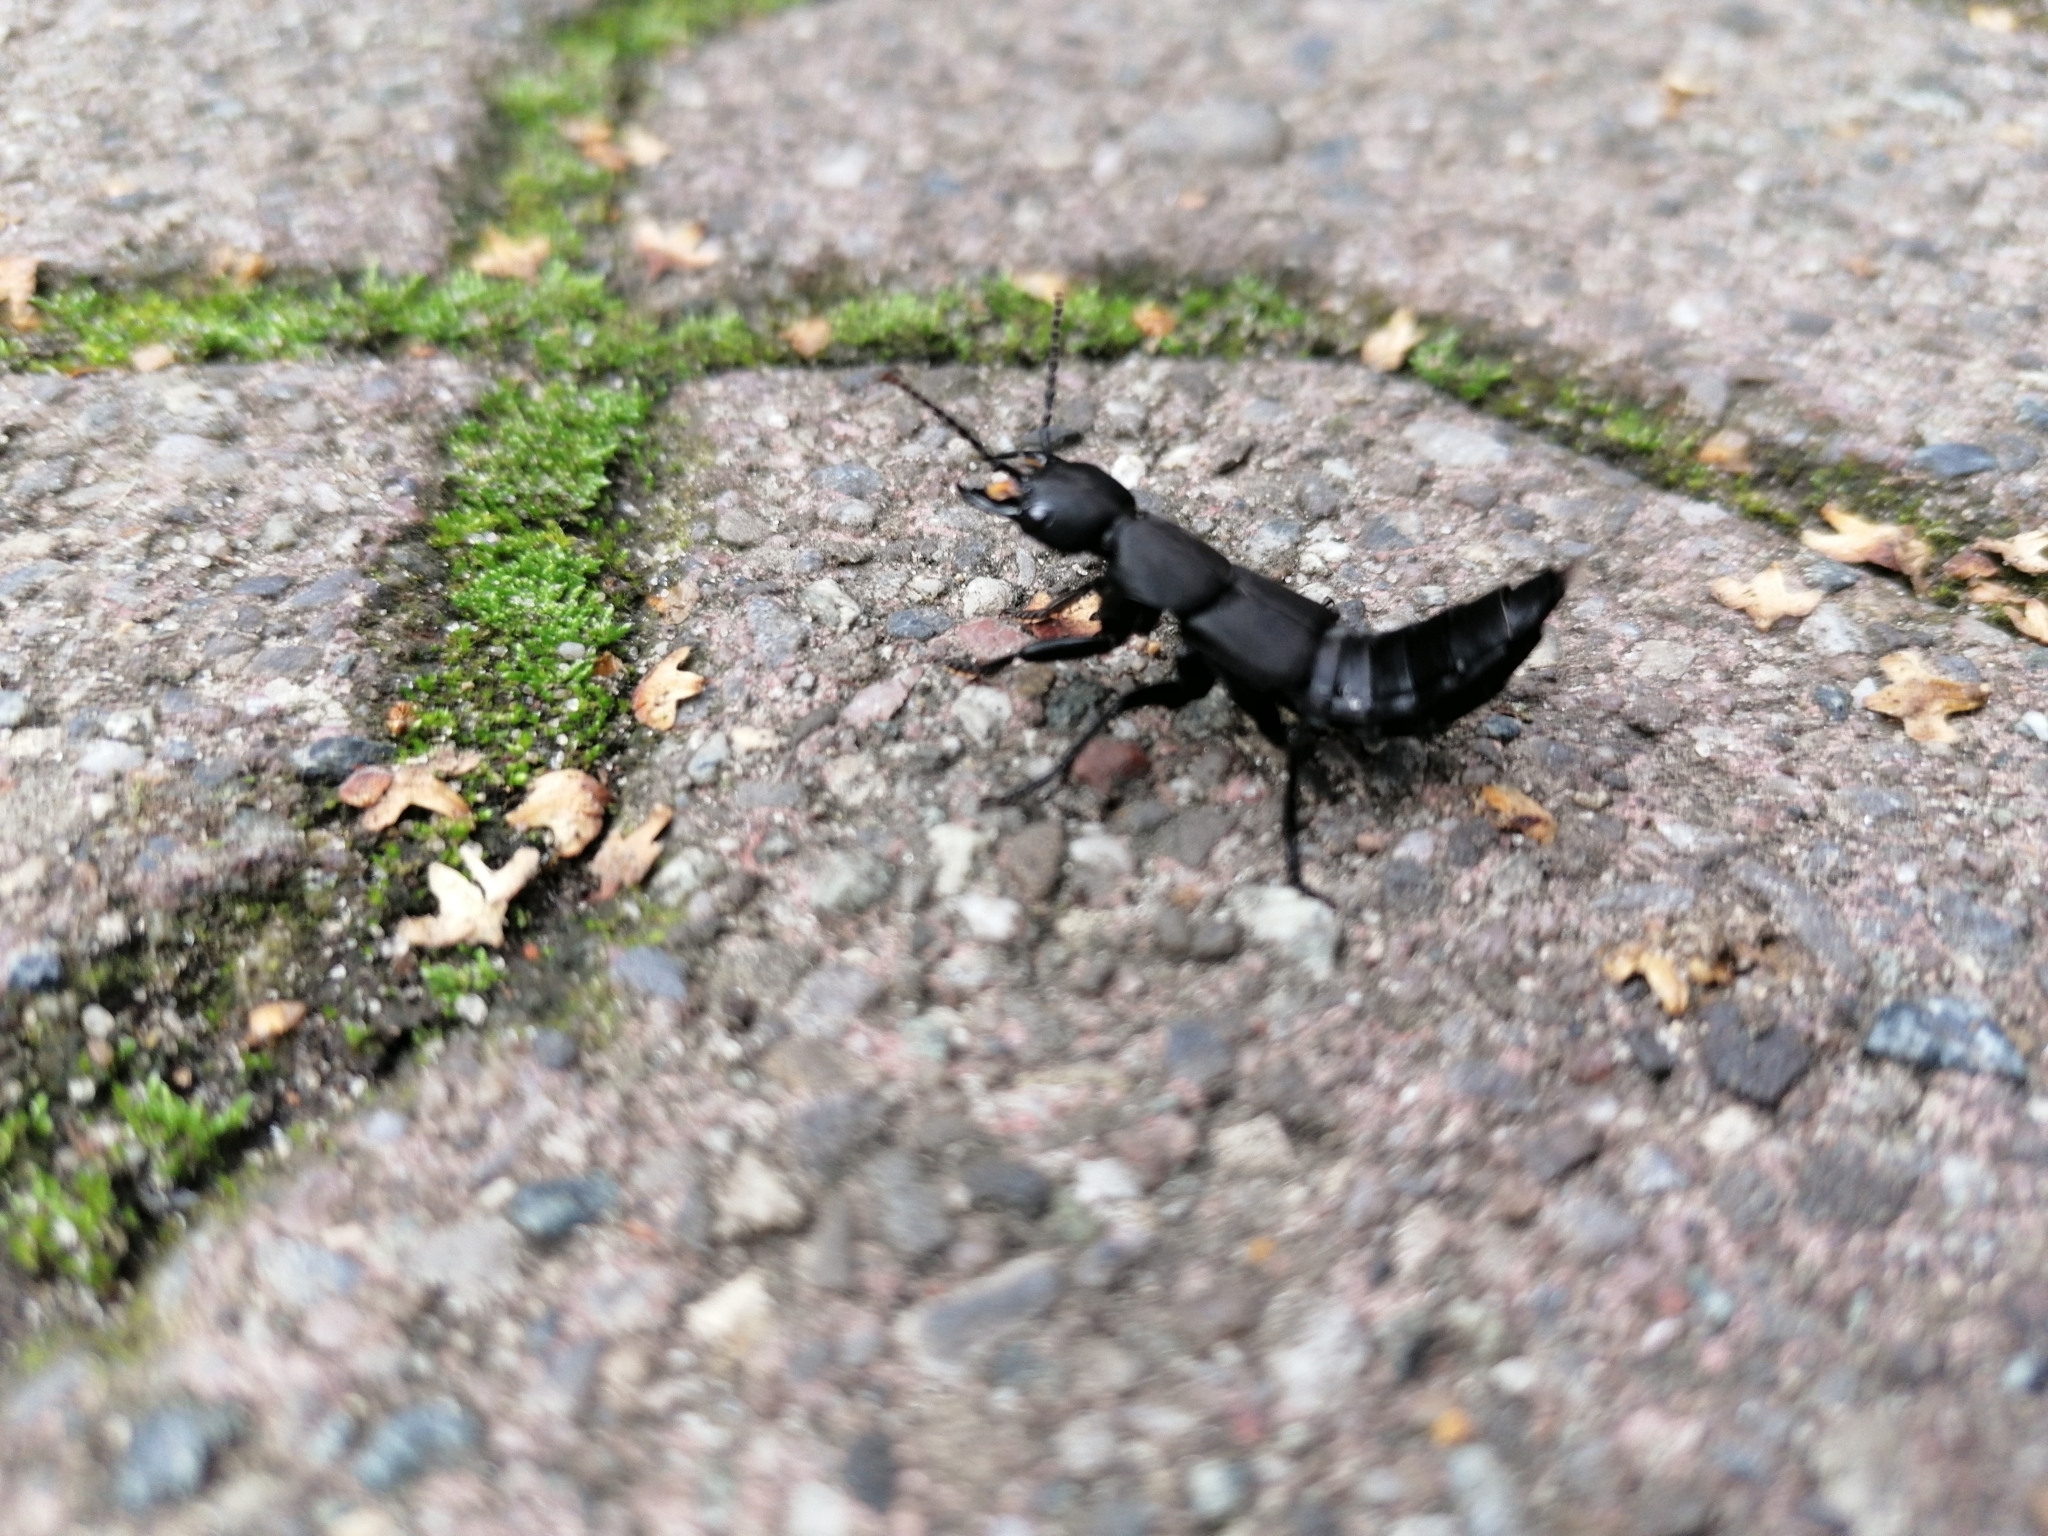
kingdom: Animalia
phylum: Arthropoda
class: Insecta
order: Coleoptera
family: Staphylinidae
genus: Ocypus
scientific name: Ocypus olens
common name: Devil's coach-horse
